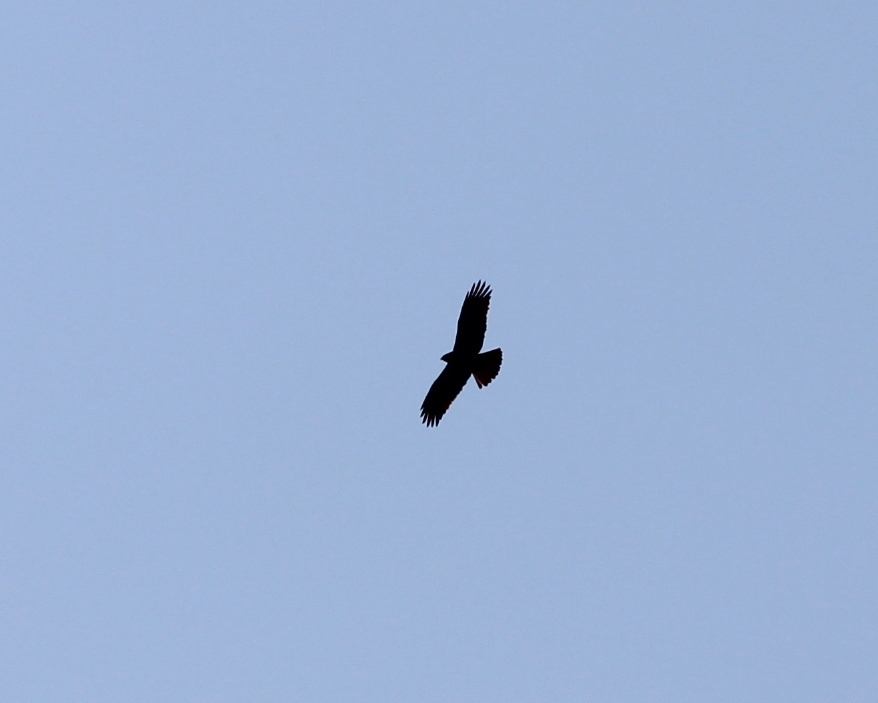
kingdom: Animalia
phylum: Chordata
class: Aves
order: Accipitriformes
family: Accipitridae
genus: Hieraaetus
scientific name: Hieraaetus pennatus
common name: Booted eagle
